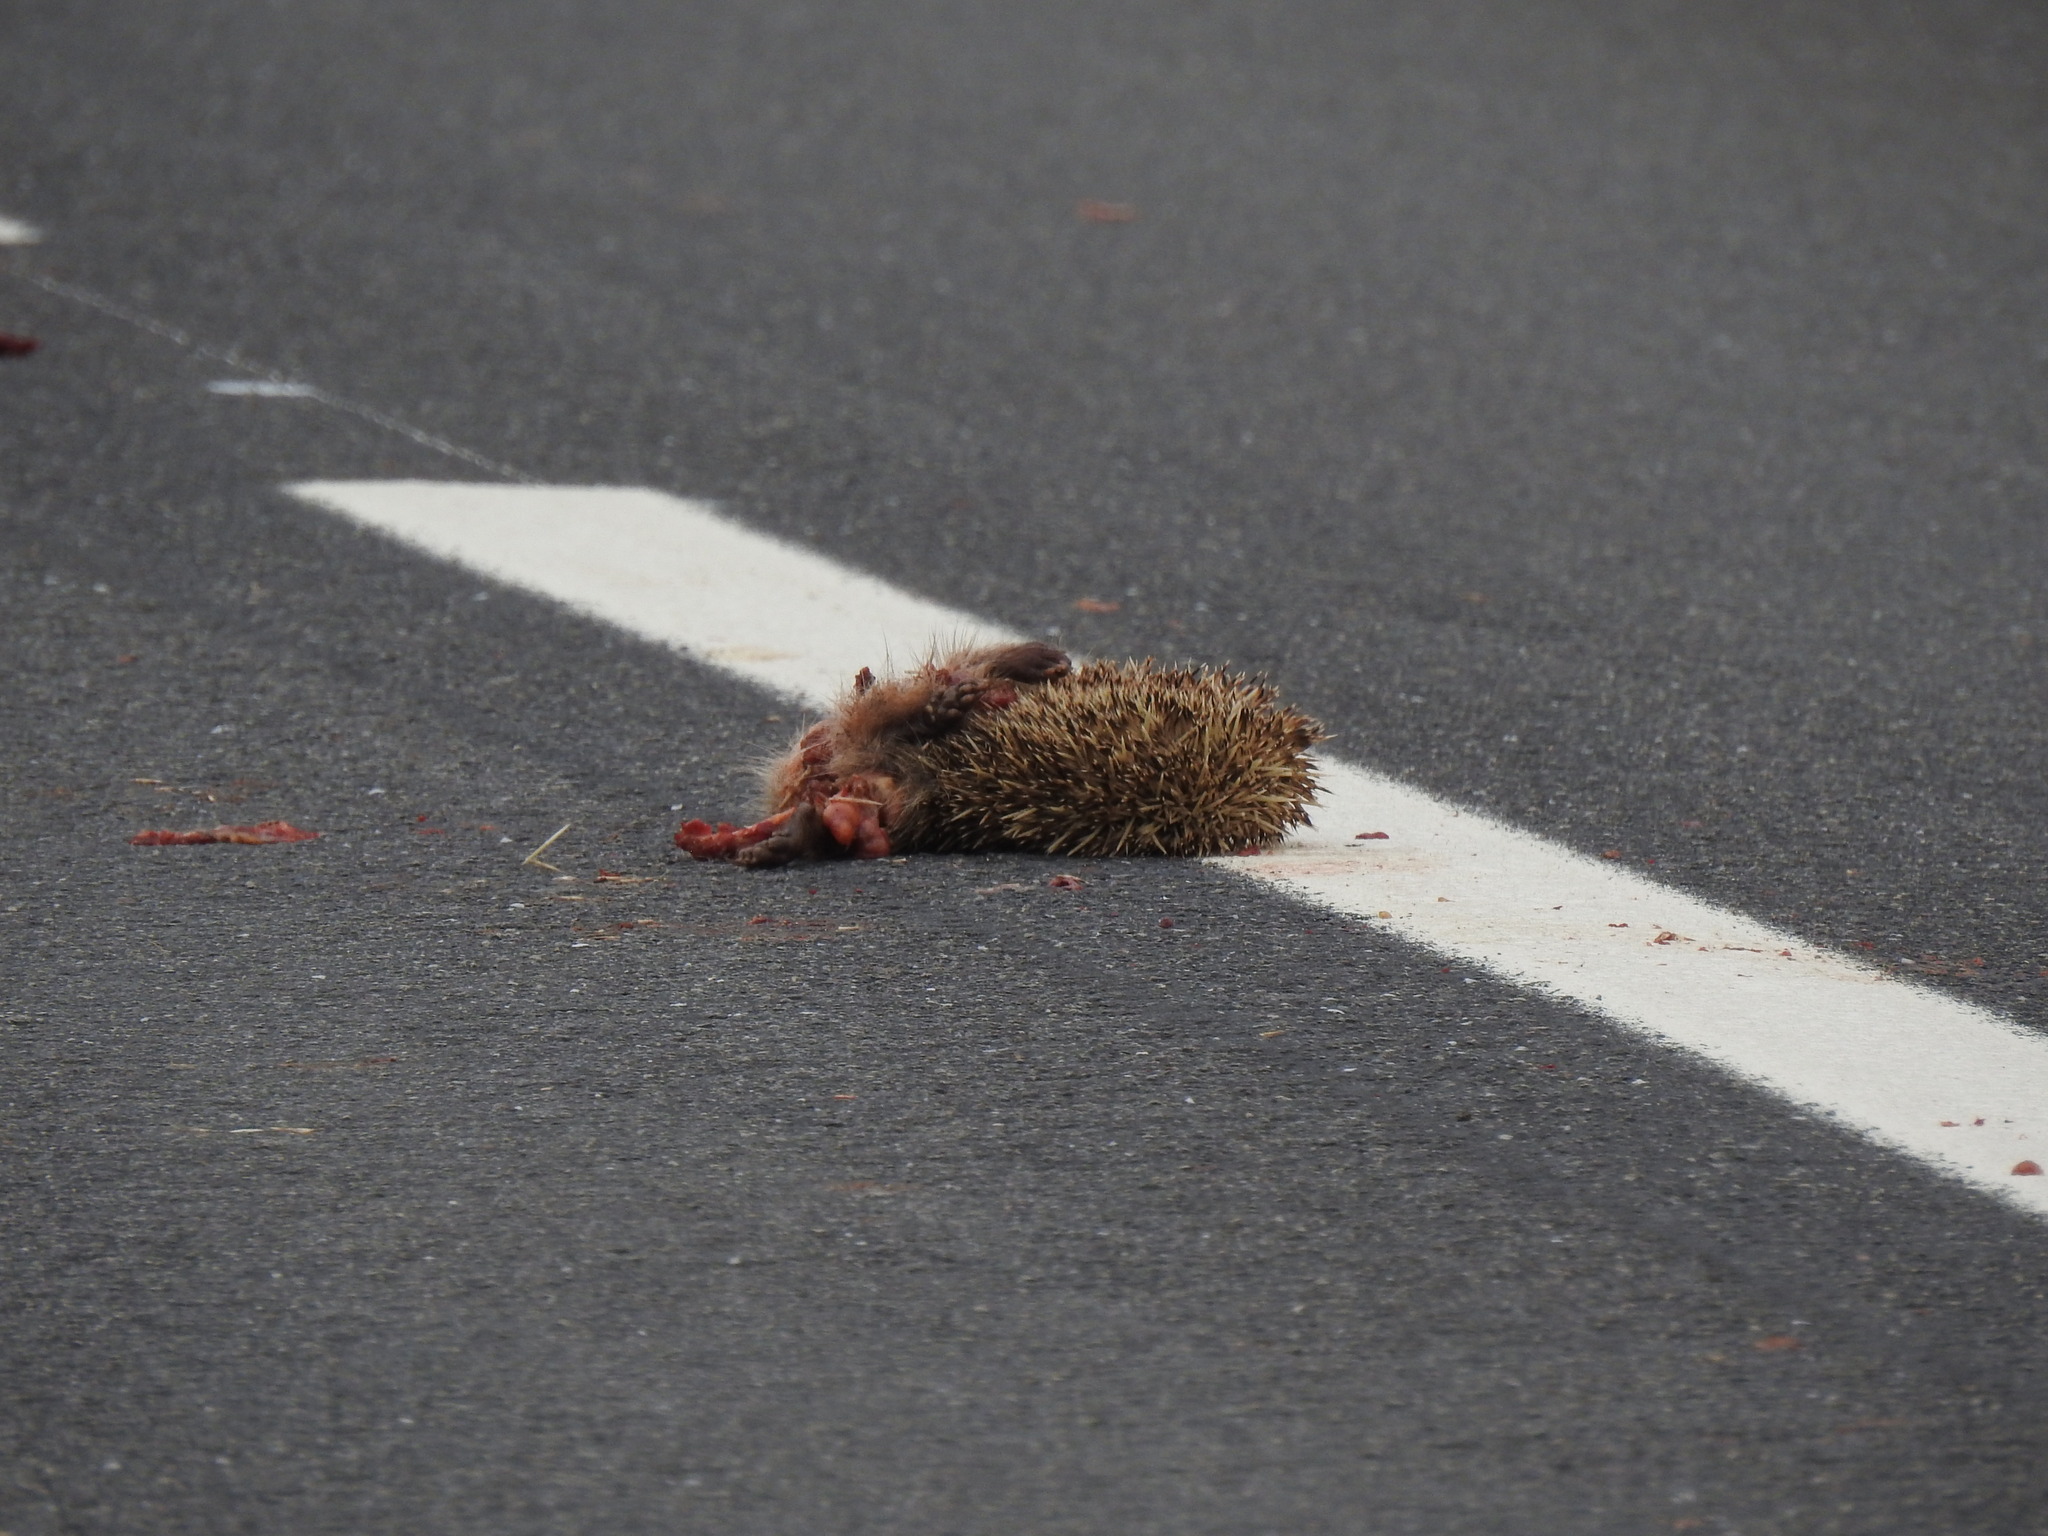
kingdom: Animalia
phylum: Chordata
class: Mammalia
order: Erinaceomorpha
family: Erinaceidae
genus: Erinaceus
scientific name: Erinaceus europaeus
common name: West european hedgehog
